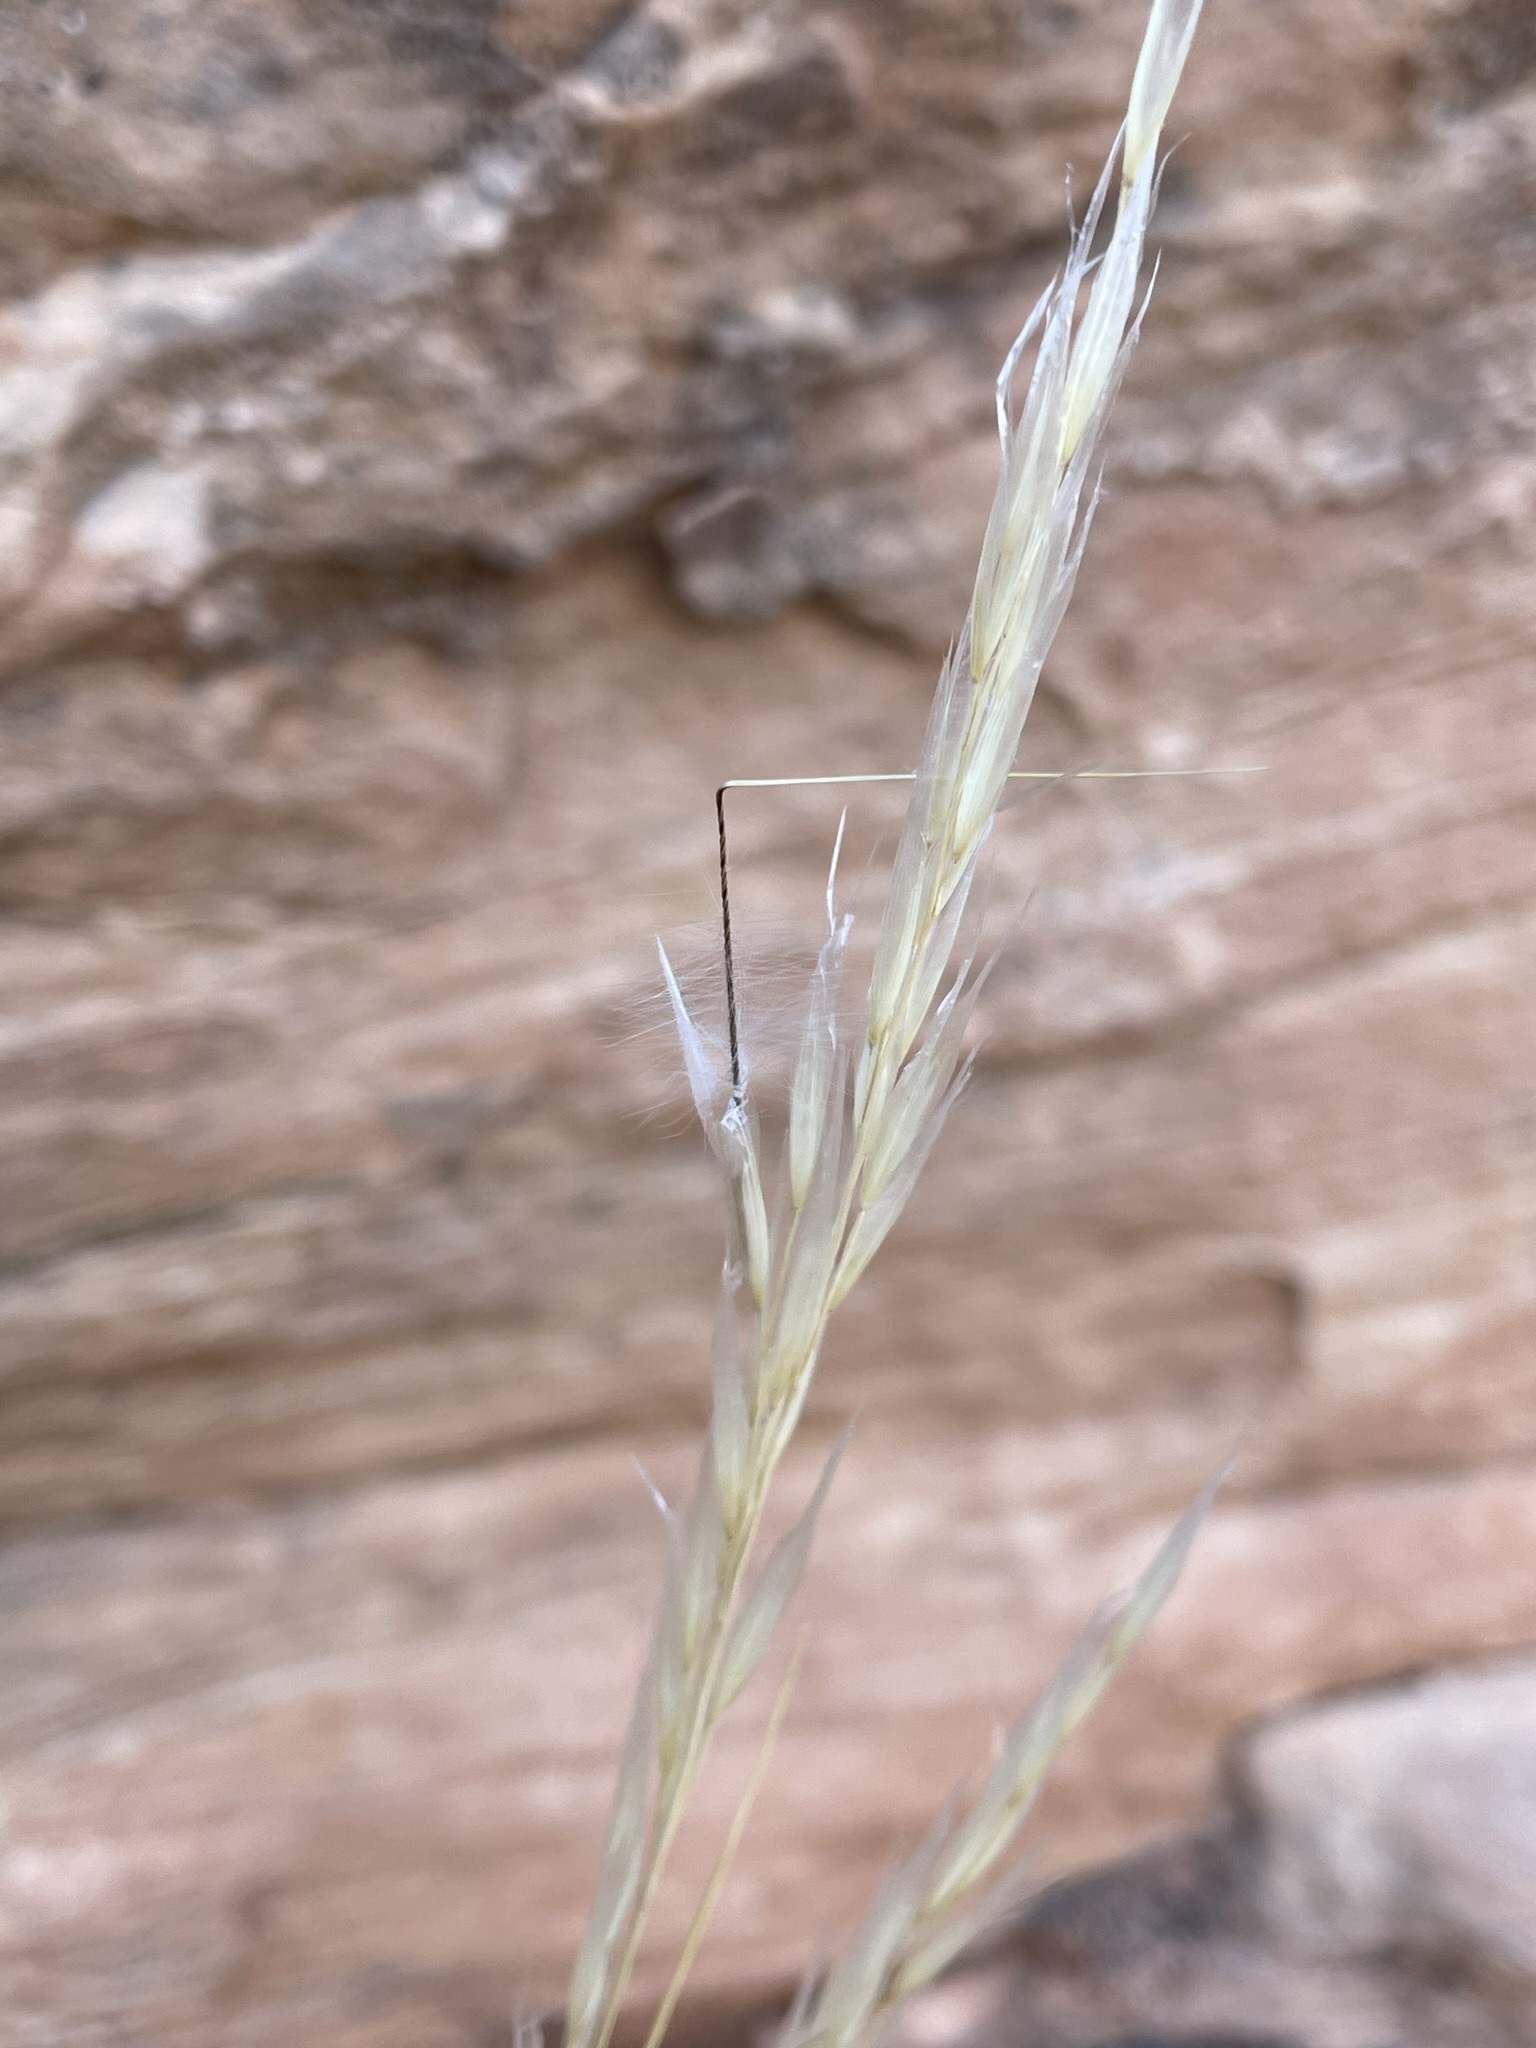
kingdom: Plantae
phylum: Tracheophyta
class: Liliopsida
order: Poales
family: Poaceae
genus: Pappostipa
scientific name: Pappostipa speciosa
